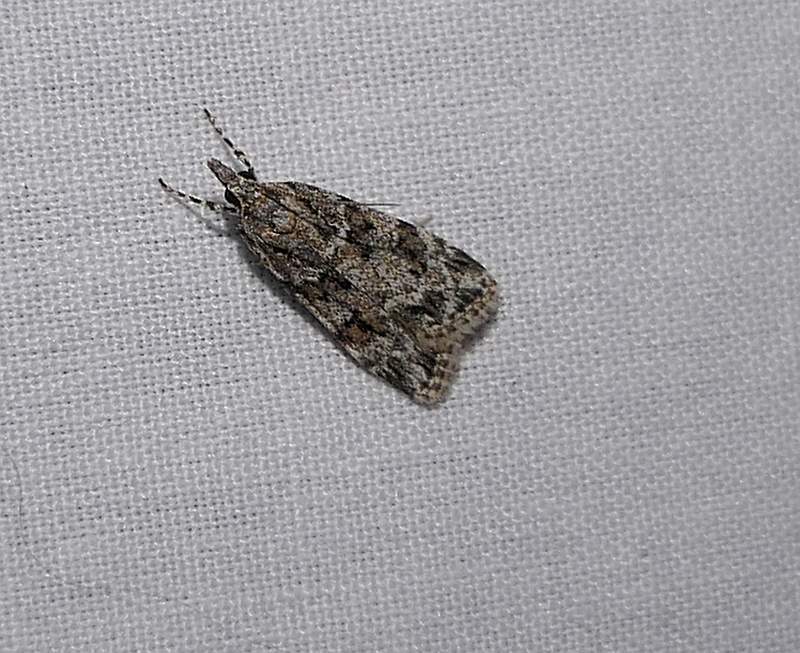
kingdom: Animalia
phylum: Arthropoda
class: Insecta
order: Lepidoptera
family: Crambidae
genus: Scoparia
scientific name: Scoparia biplagialis
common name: Double-striped scoparia moth
